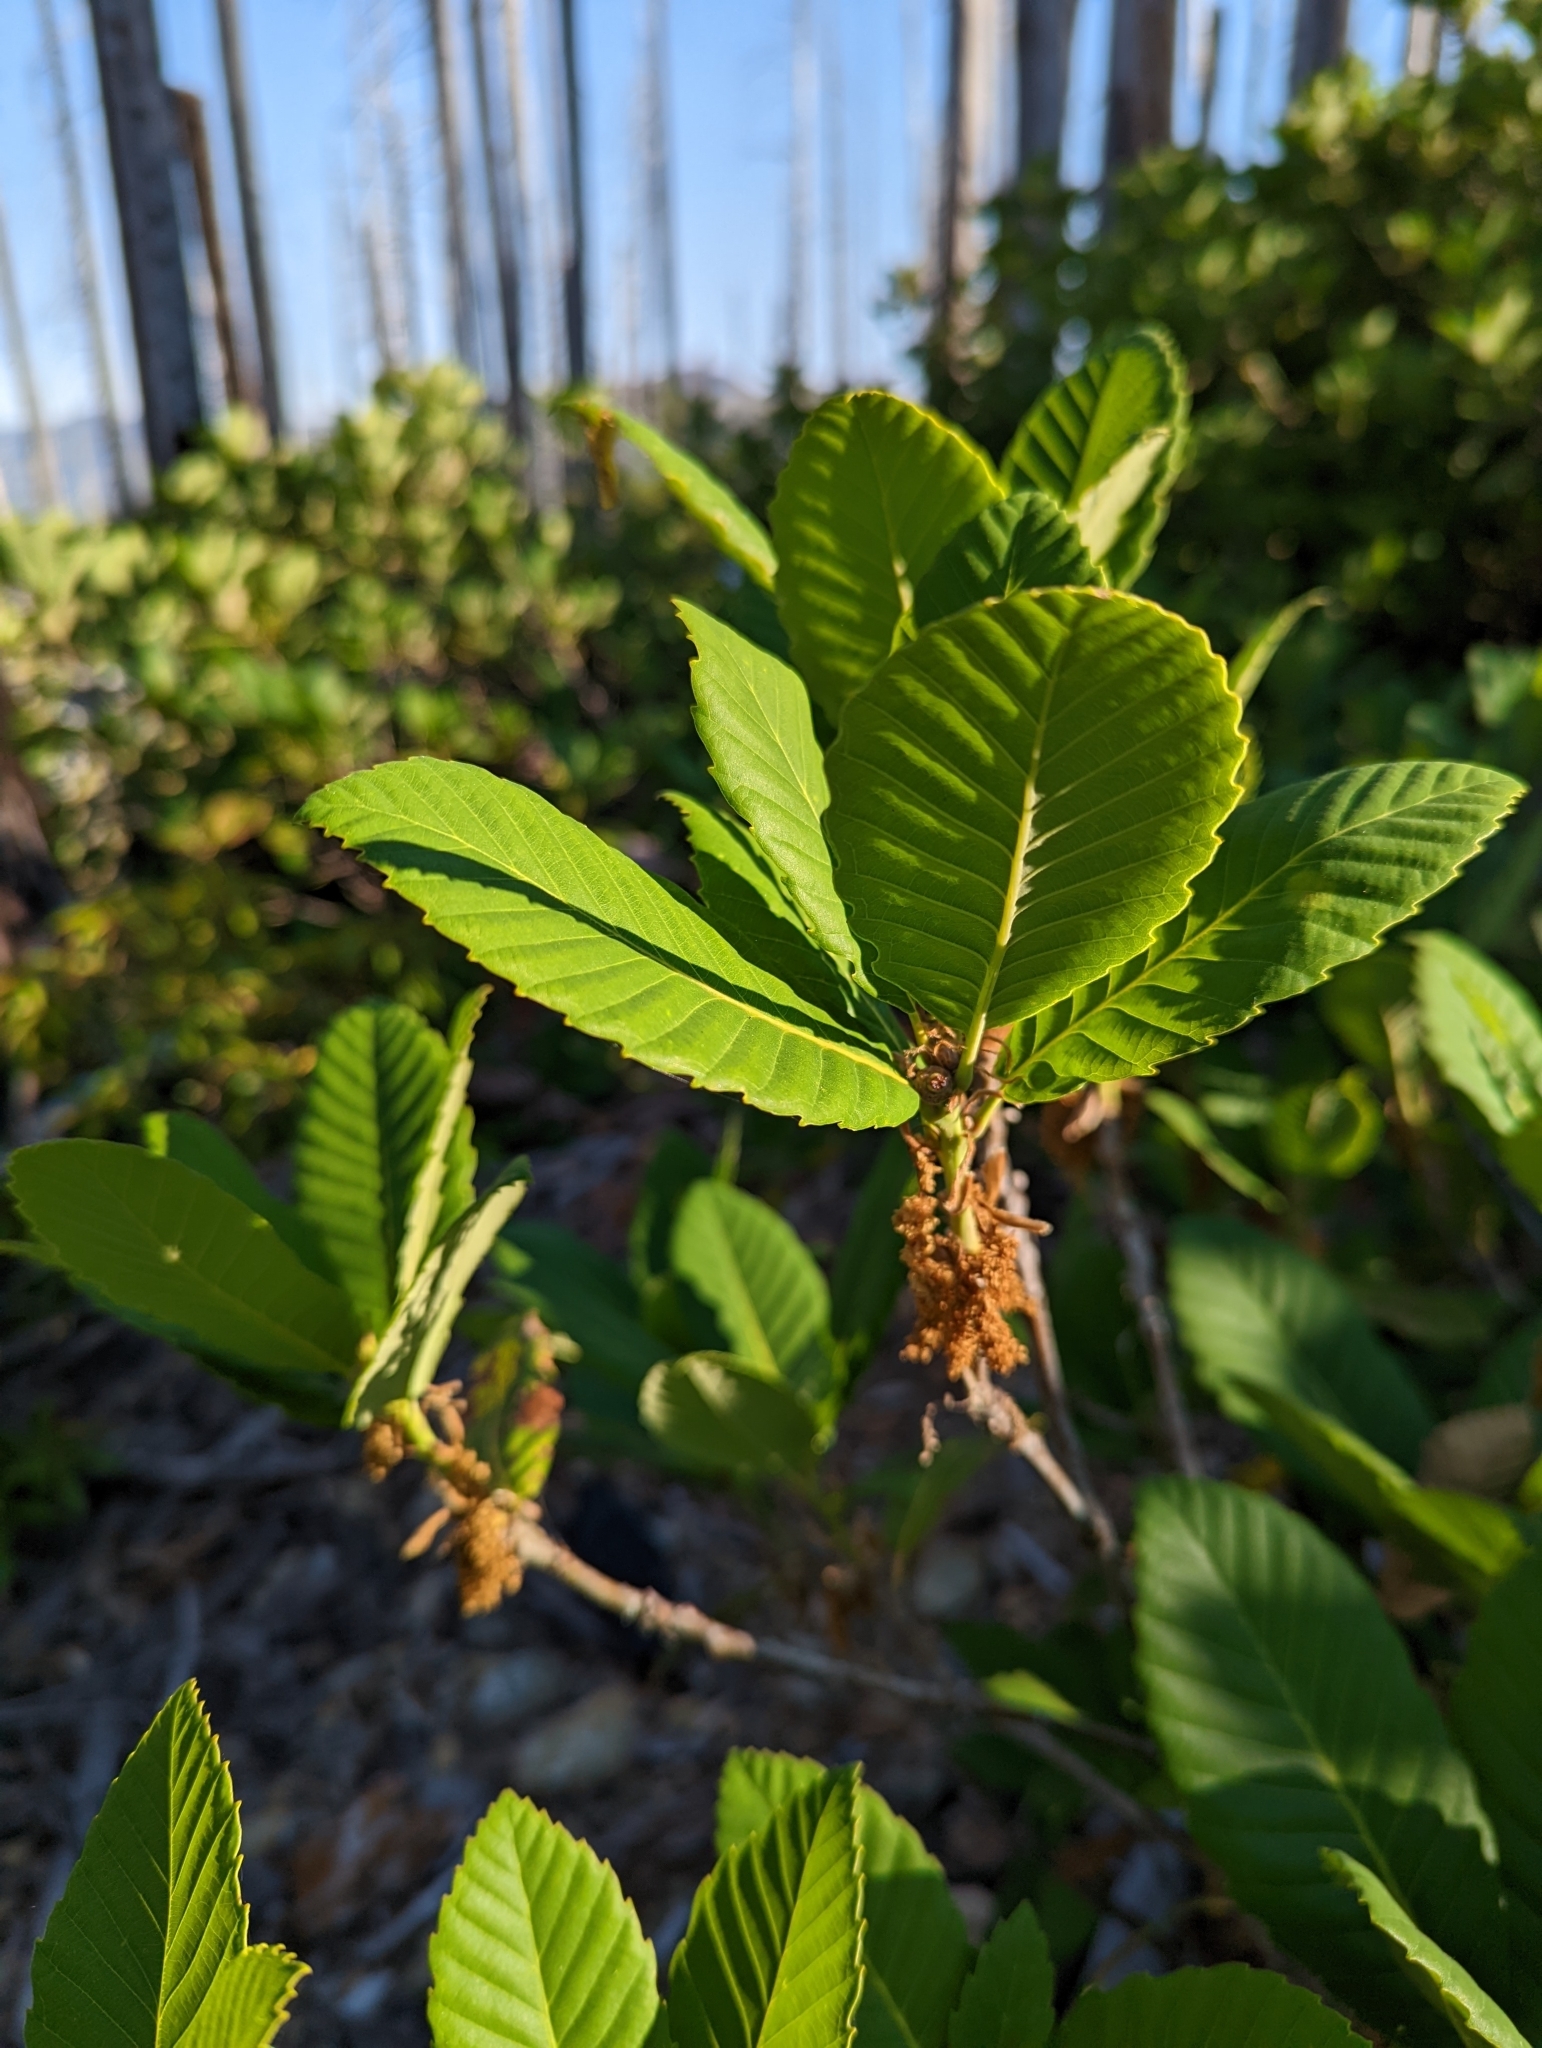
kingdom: Plantae
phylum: Tracheophyta
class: Magnoliopsida
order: Fagales
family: Fagaceae
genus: Quercus
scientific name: Quercus sadleriana
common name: Deer oak
